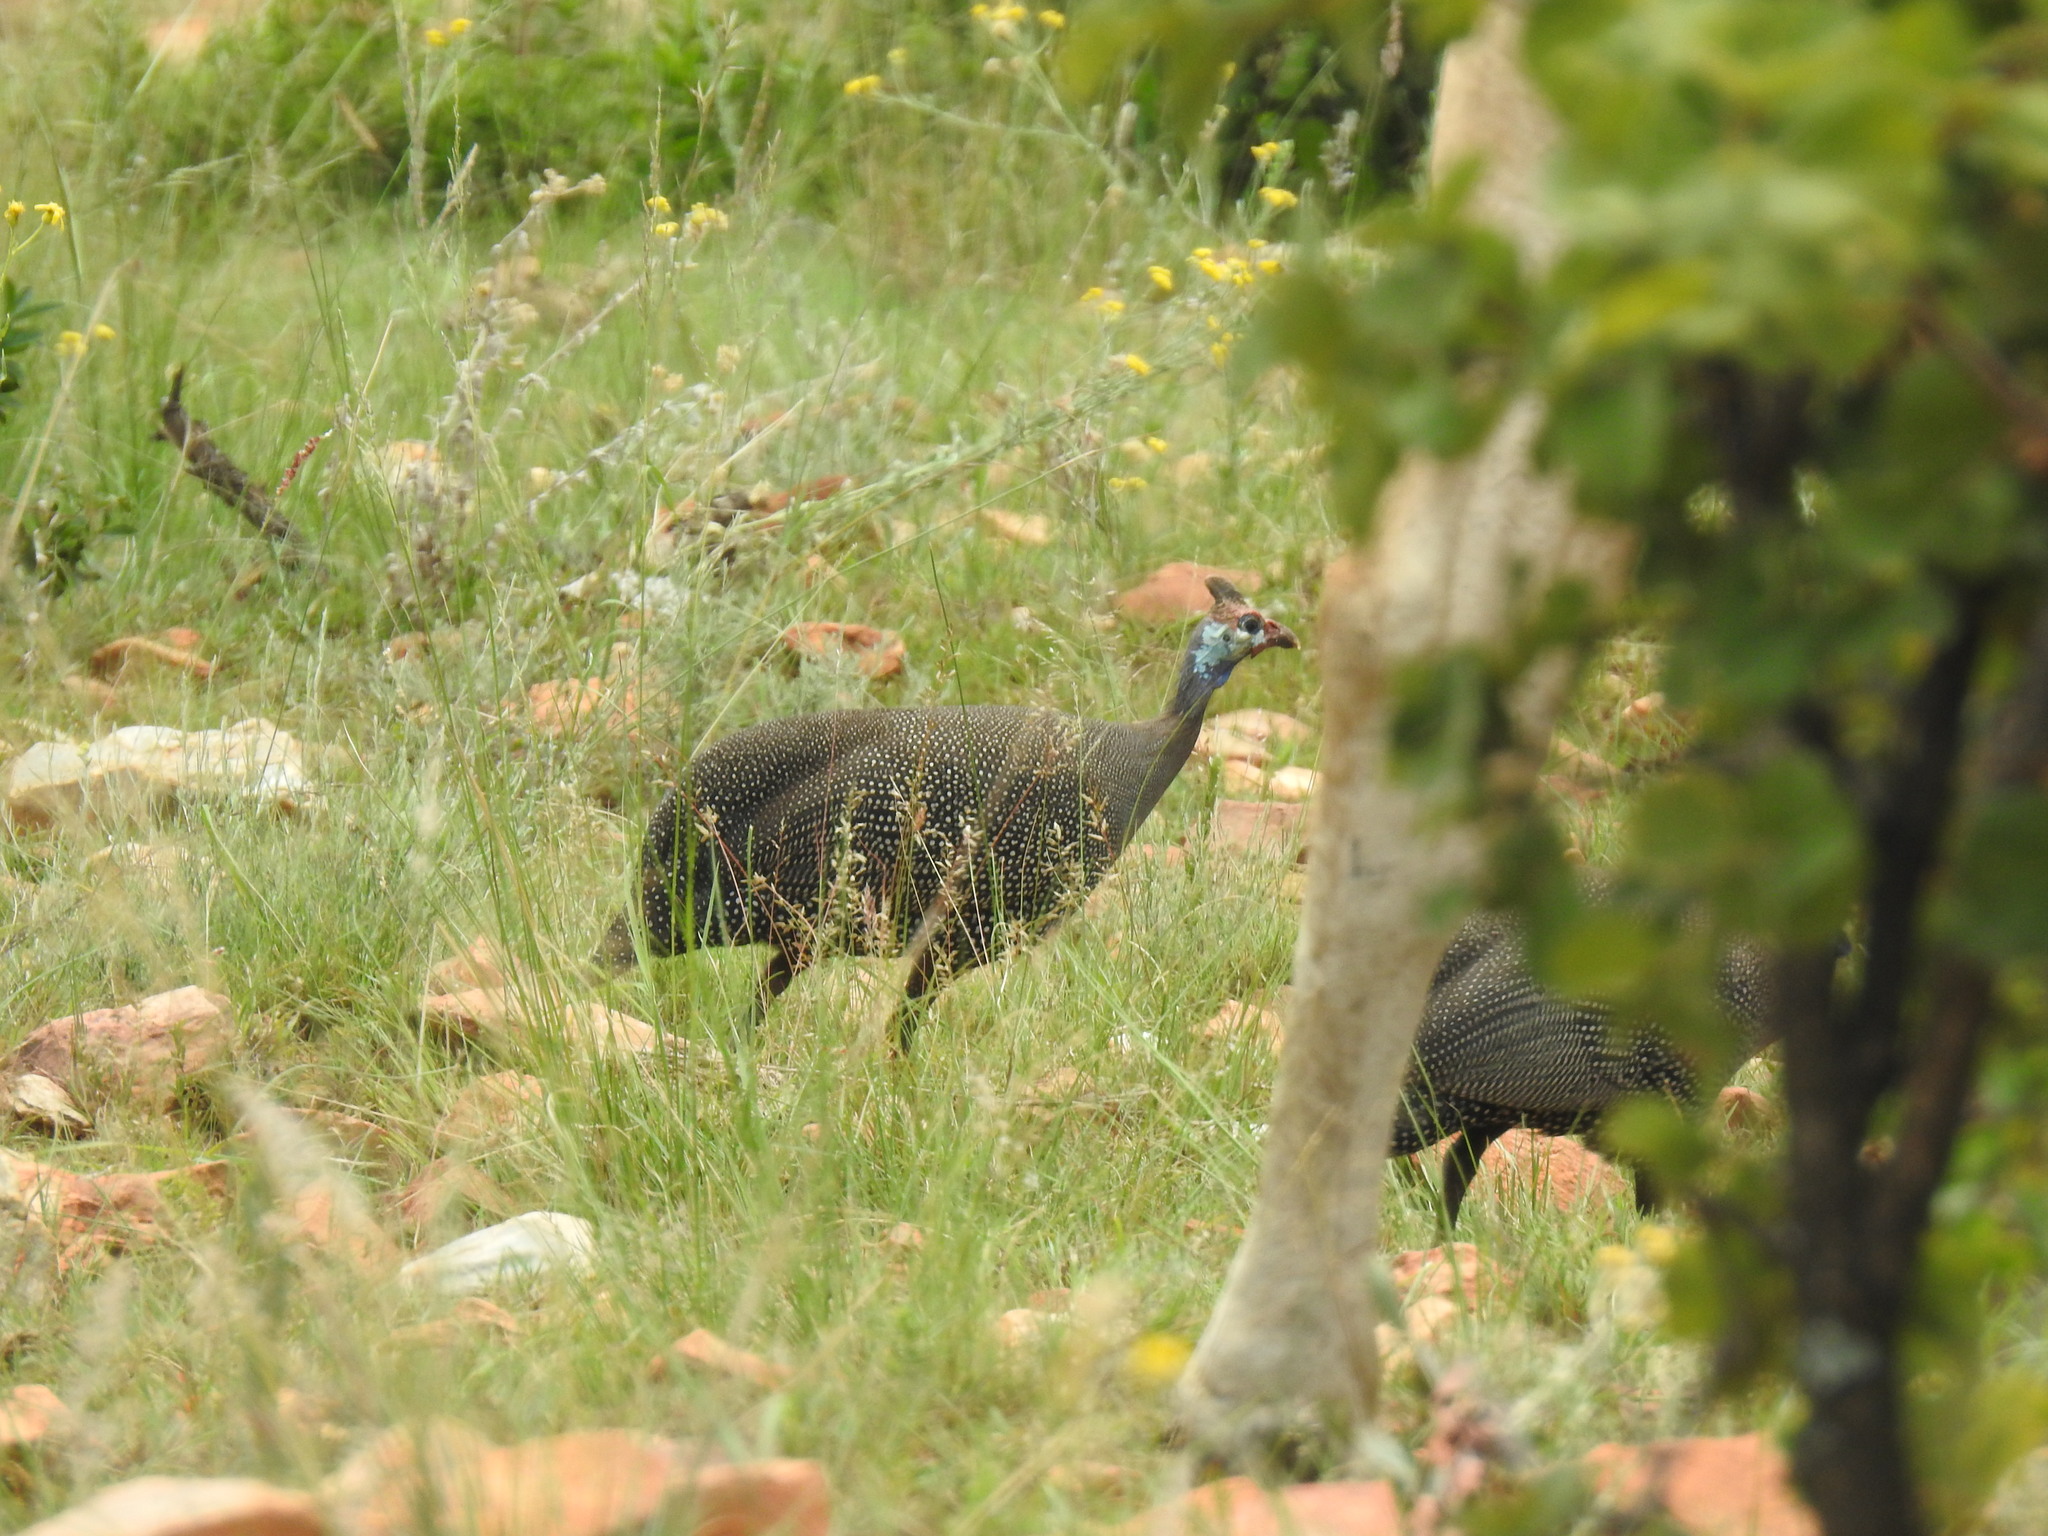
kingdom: Animalia
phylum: Chordata
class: Aves
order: Galliformes
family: Numididae
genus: Numida
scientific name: Numida meleagris
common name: Helmeted guineafowl
